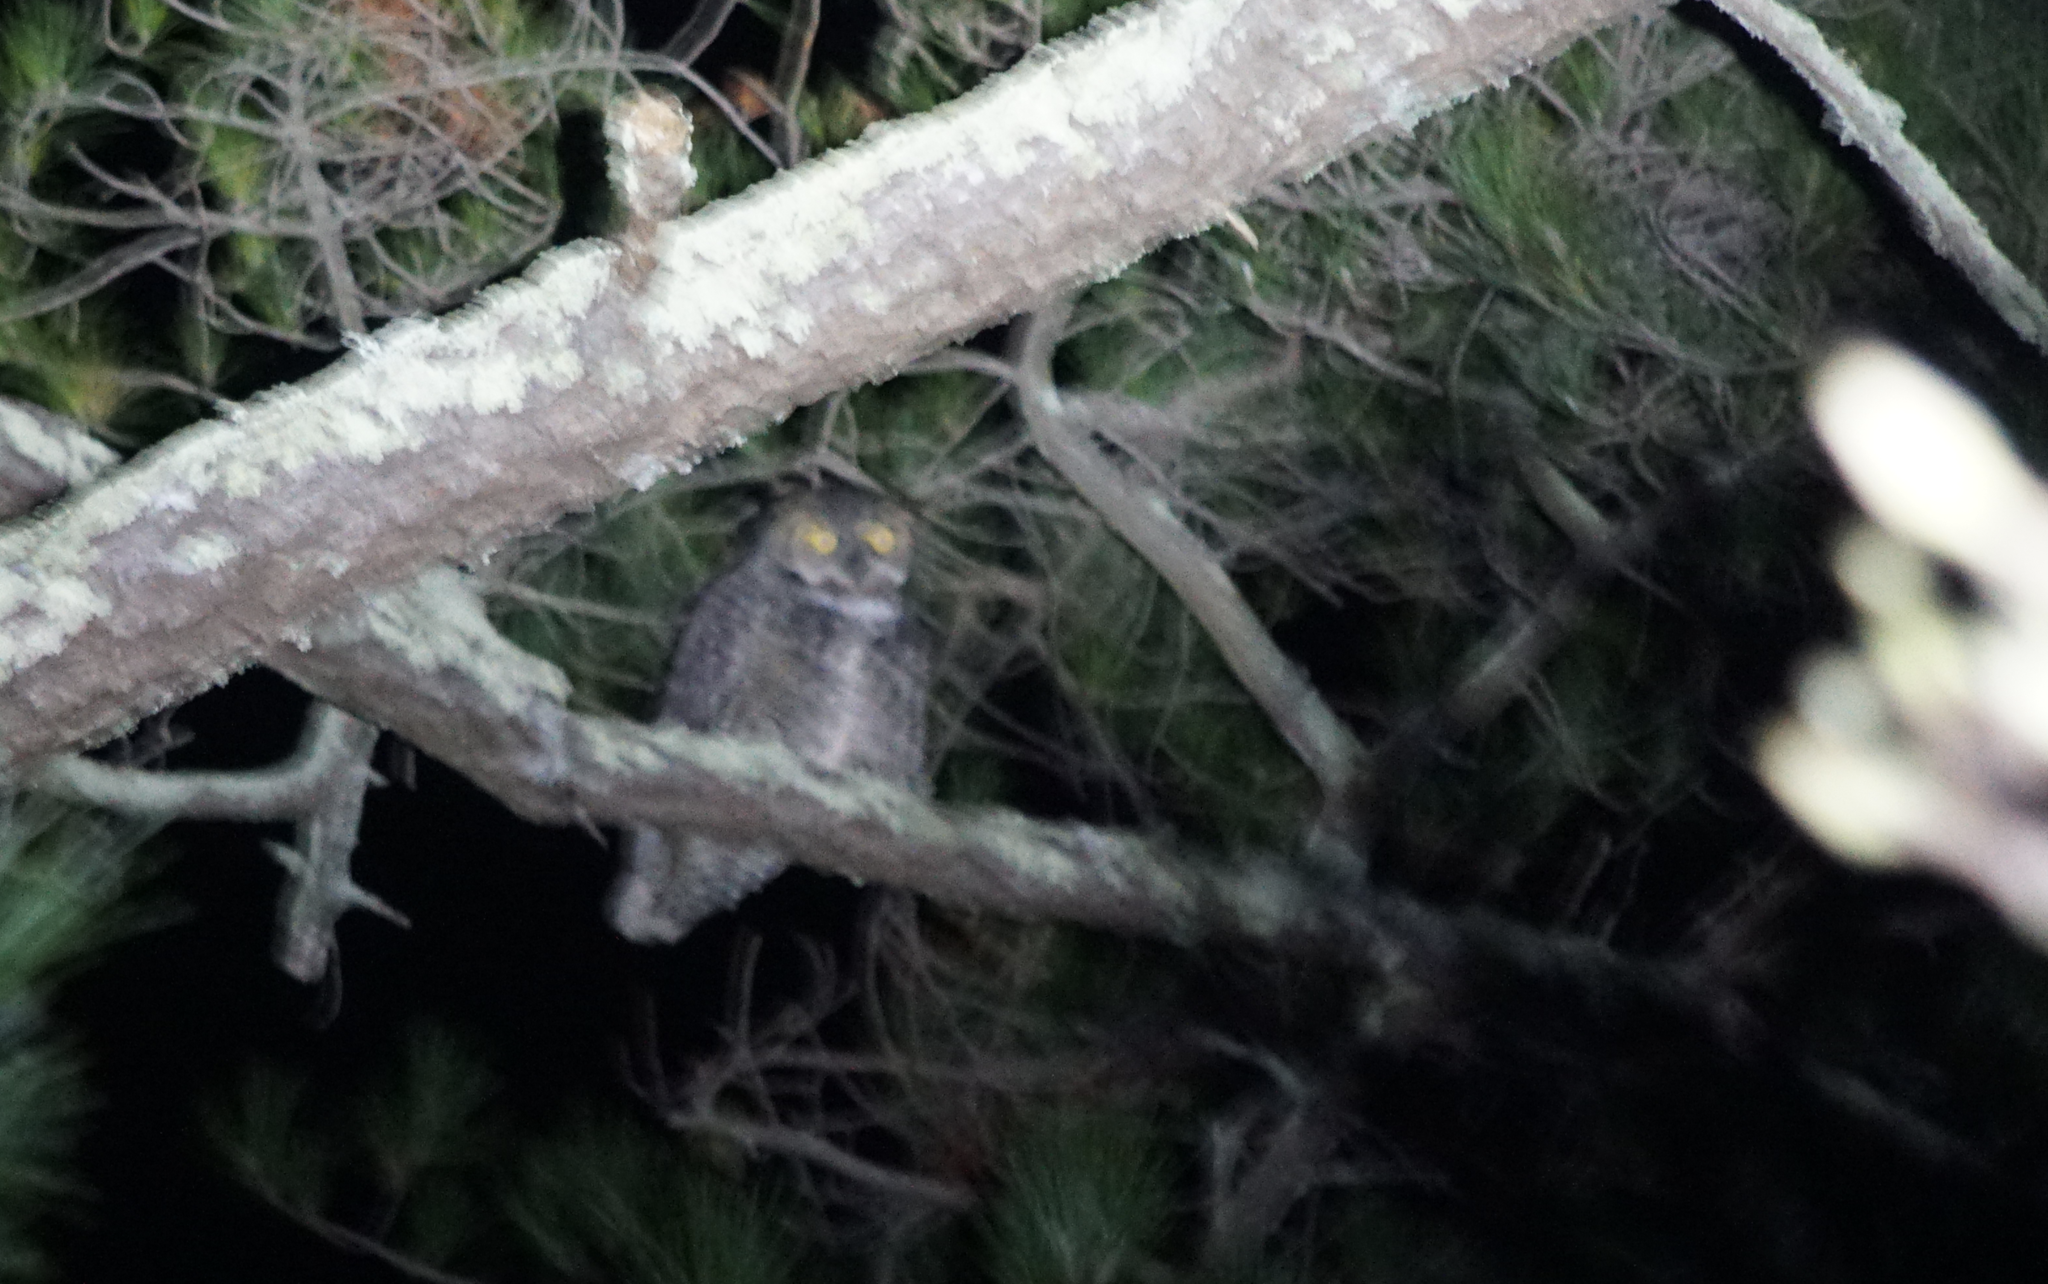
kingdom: Animalia
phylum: Chordata
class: Aves
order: Strigiformes
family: Strigidae
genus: Bubo
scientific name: Bubo virginianus
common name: Great horned owl
